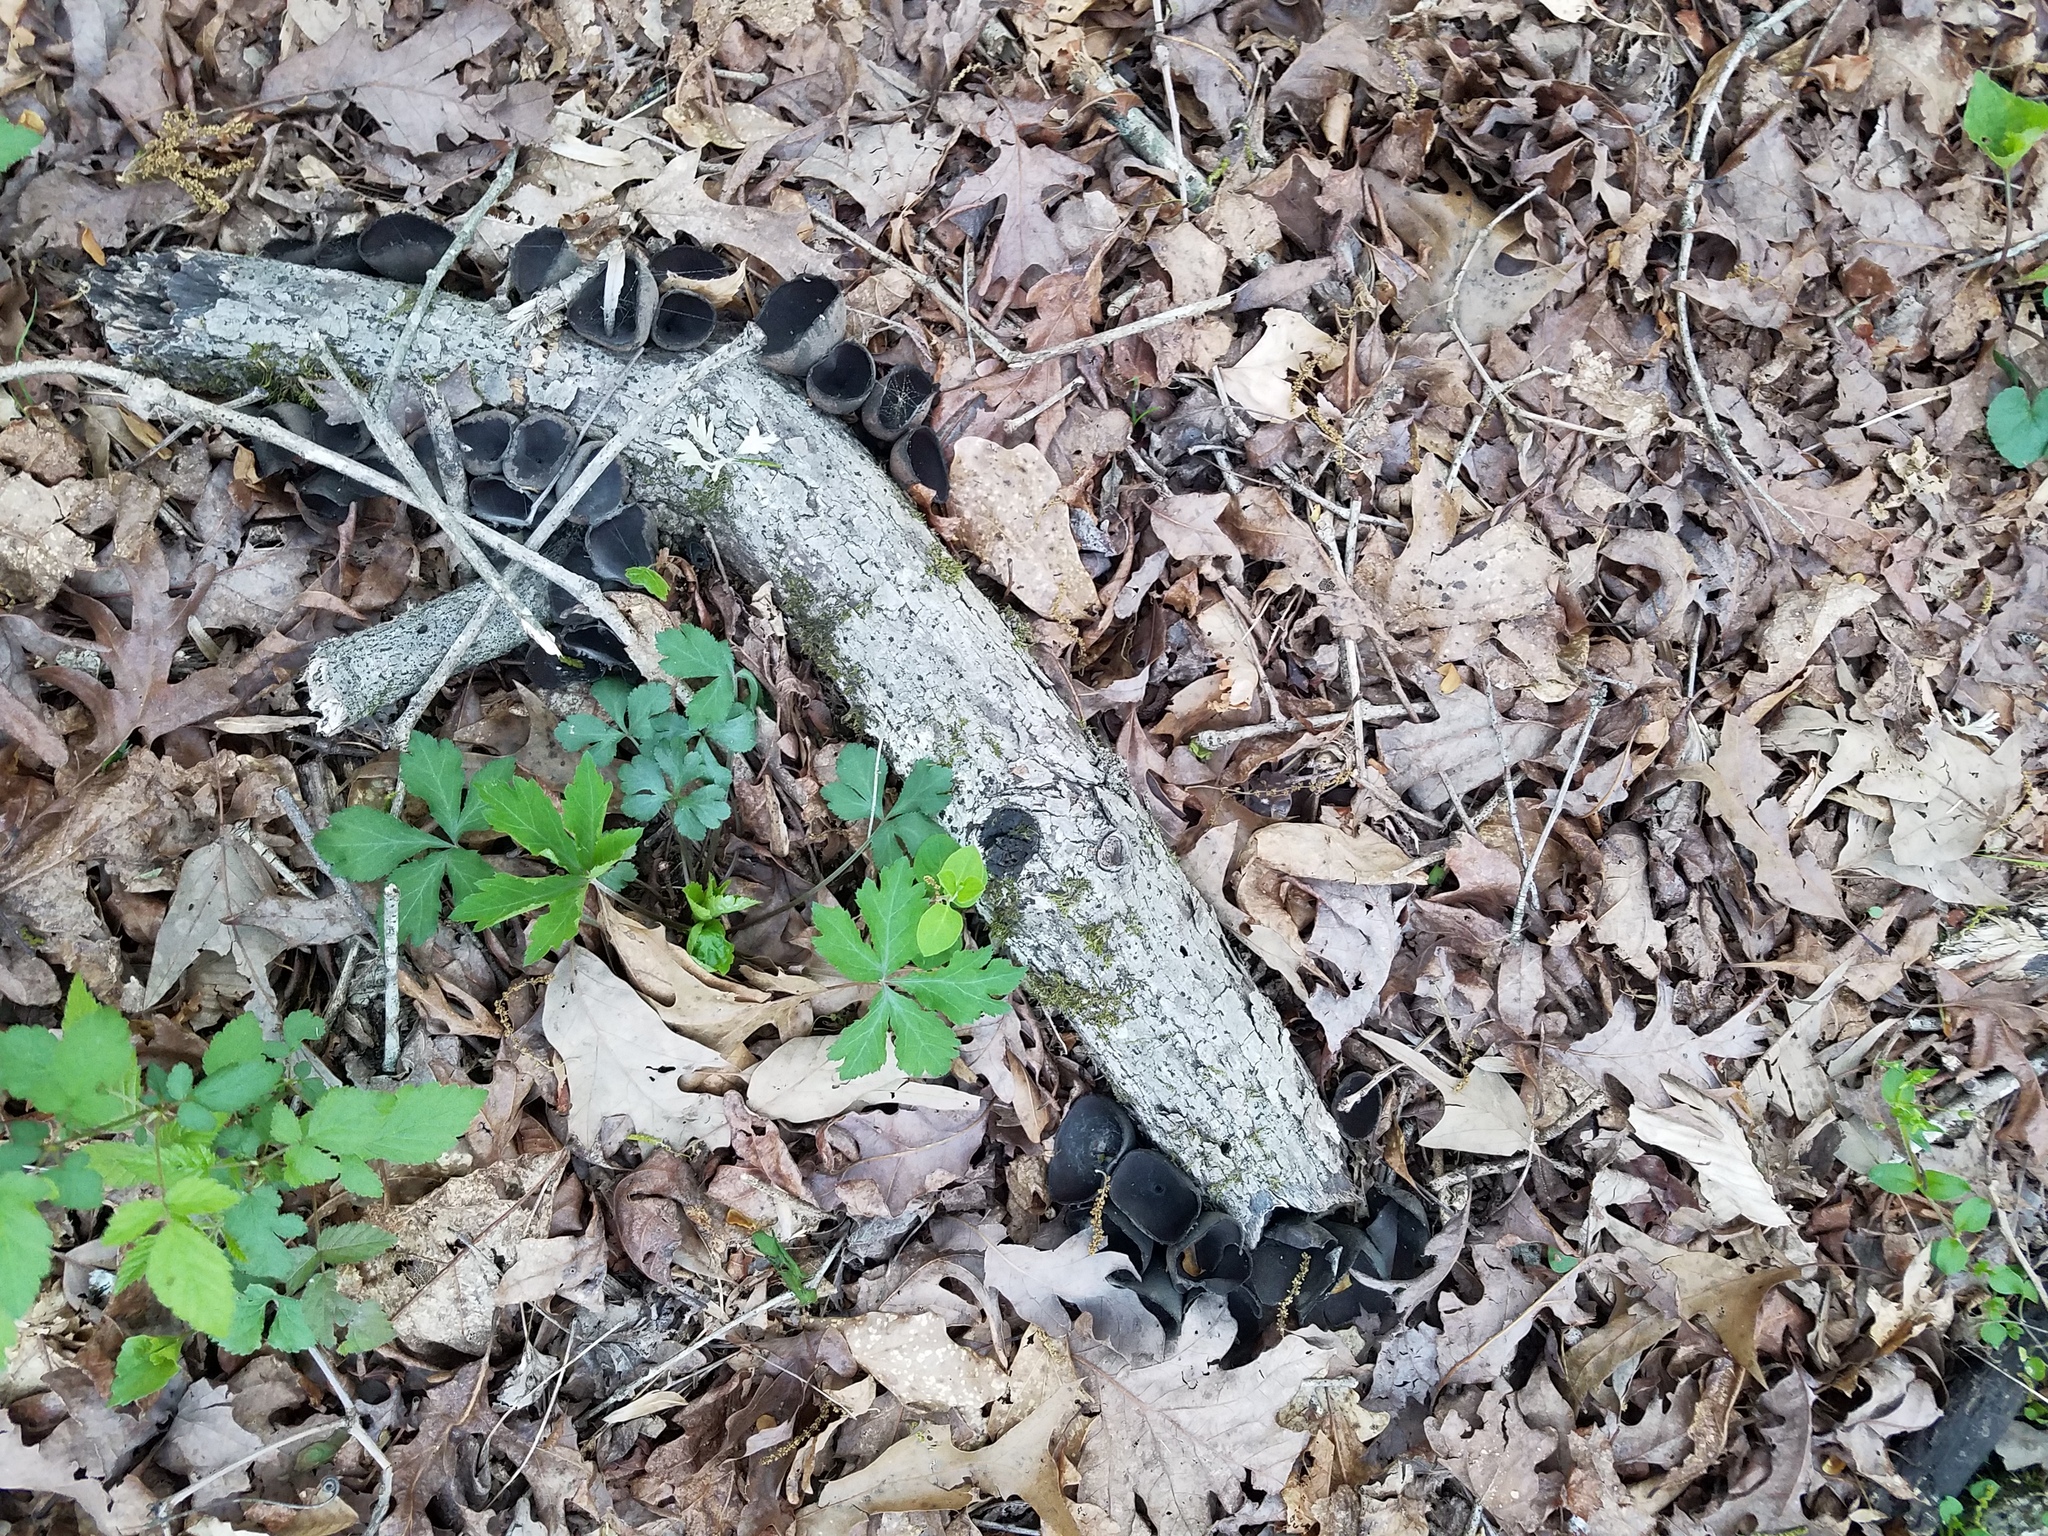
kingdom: Fungi
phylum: Ascomycota
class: Pezizomycetes
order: Pezizales
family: Sarcosomataceae
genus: Urnula
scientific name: Urnula craterium
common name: Devil's urn
